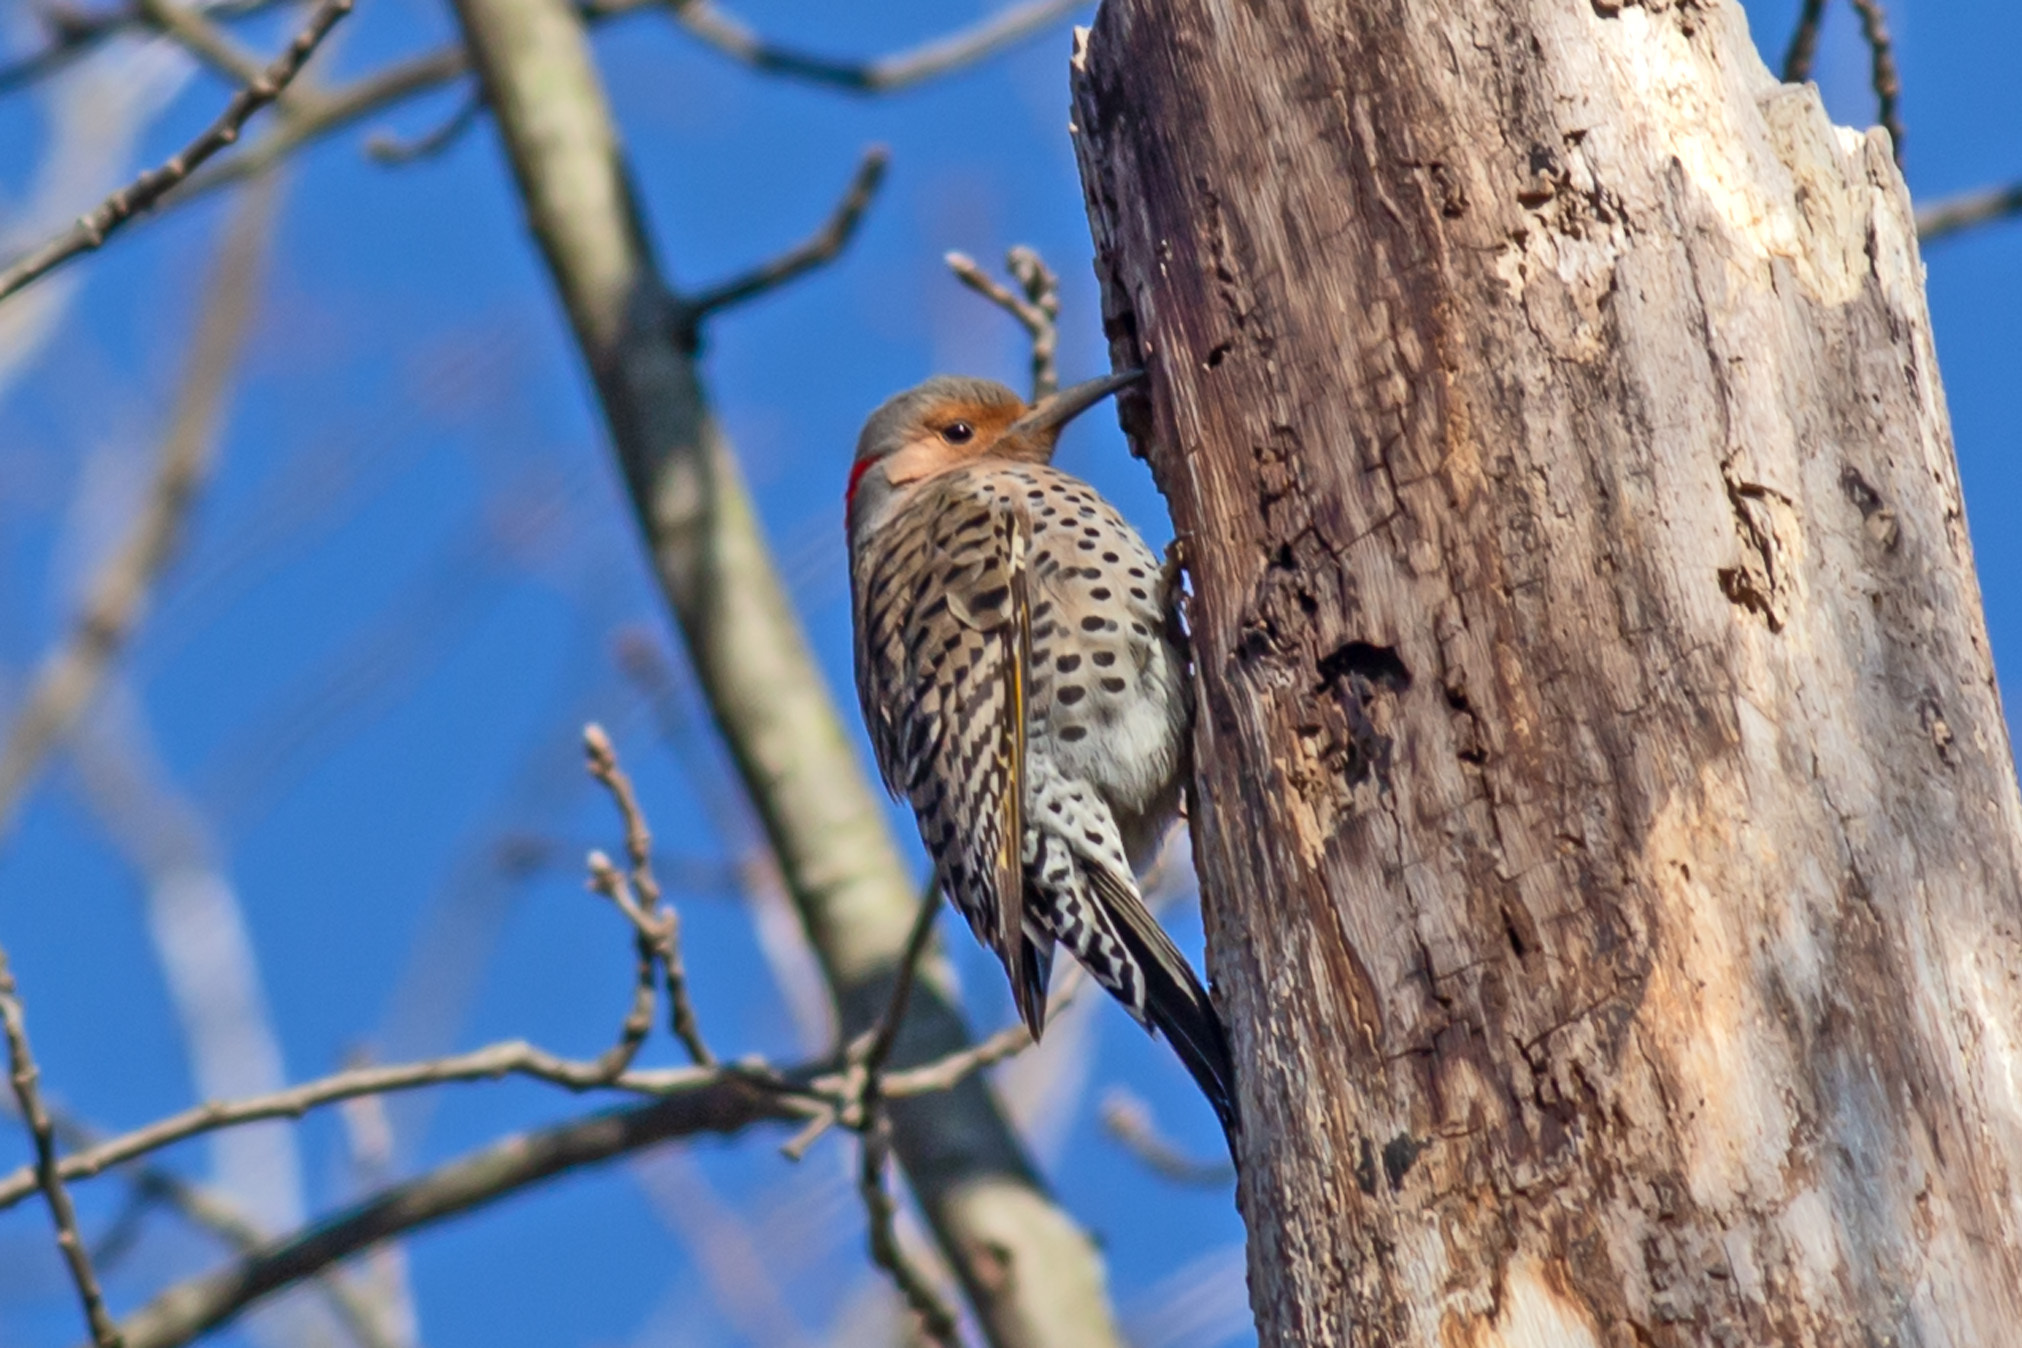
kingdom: Animalia
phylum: Chordata
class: Aves
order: Piciformes
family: Picidae
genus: Colaptes
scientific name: Colaptes auratus
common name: Northern flicker
